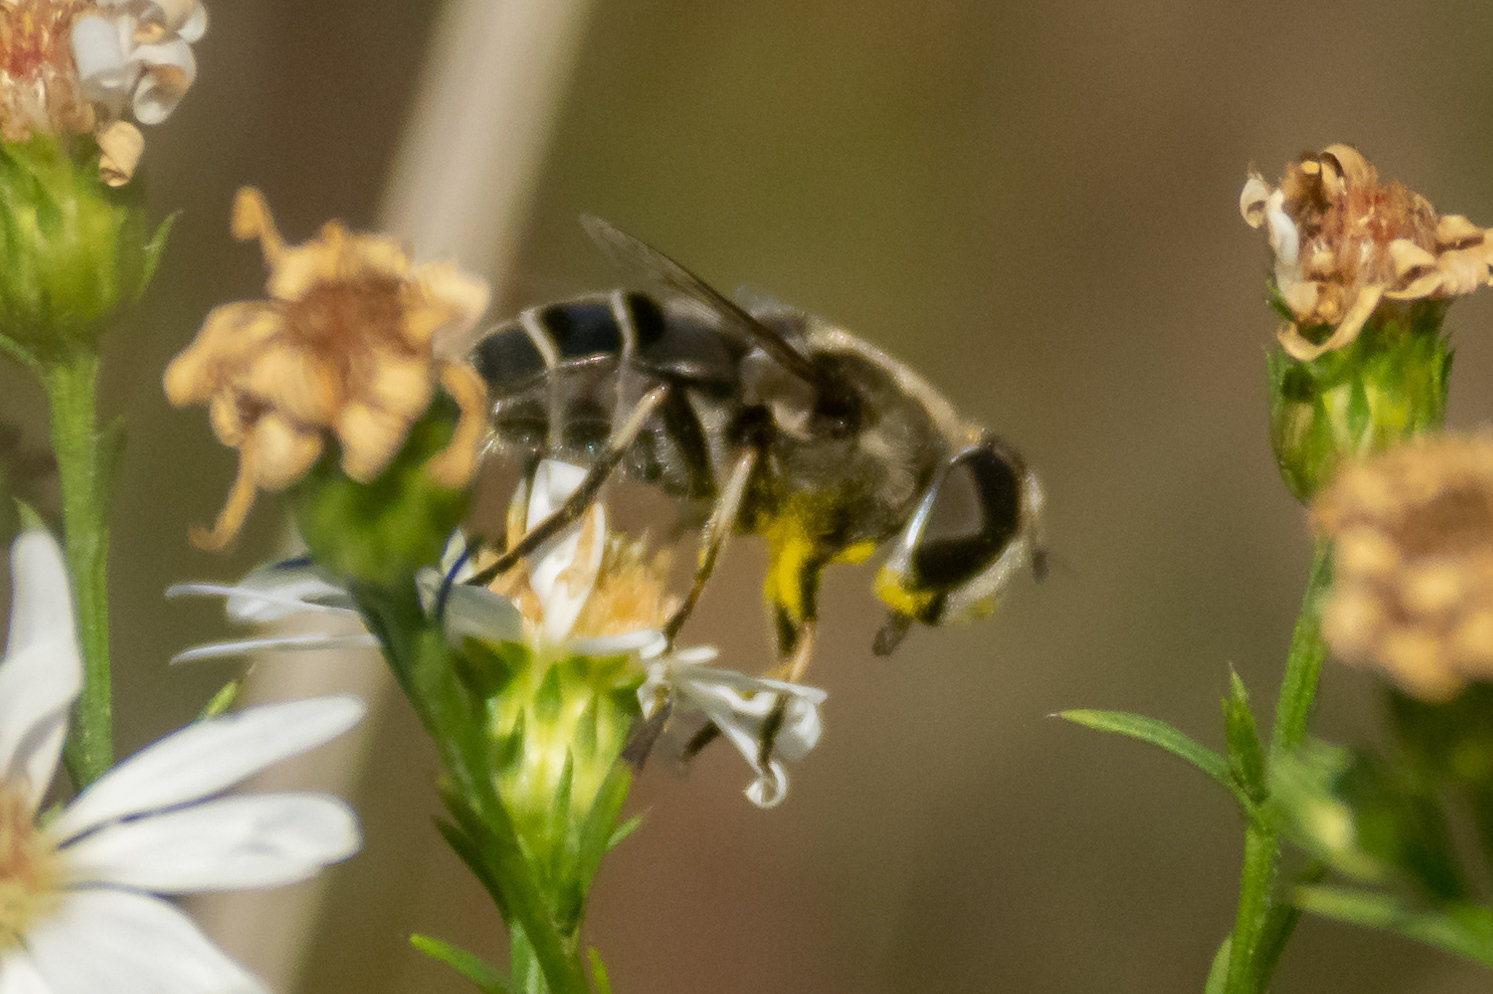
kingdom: Animalia
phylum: Arthropoda
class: Insecta
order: Diptera
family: Syrphidae
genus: Eristalis
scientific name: Eristalis dimidiata
